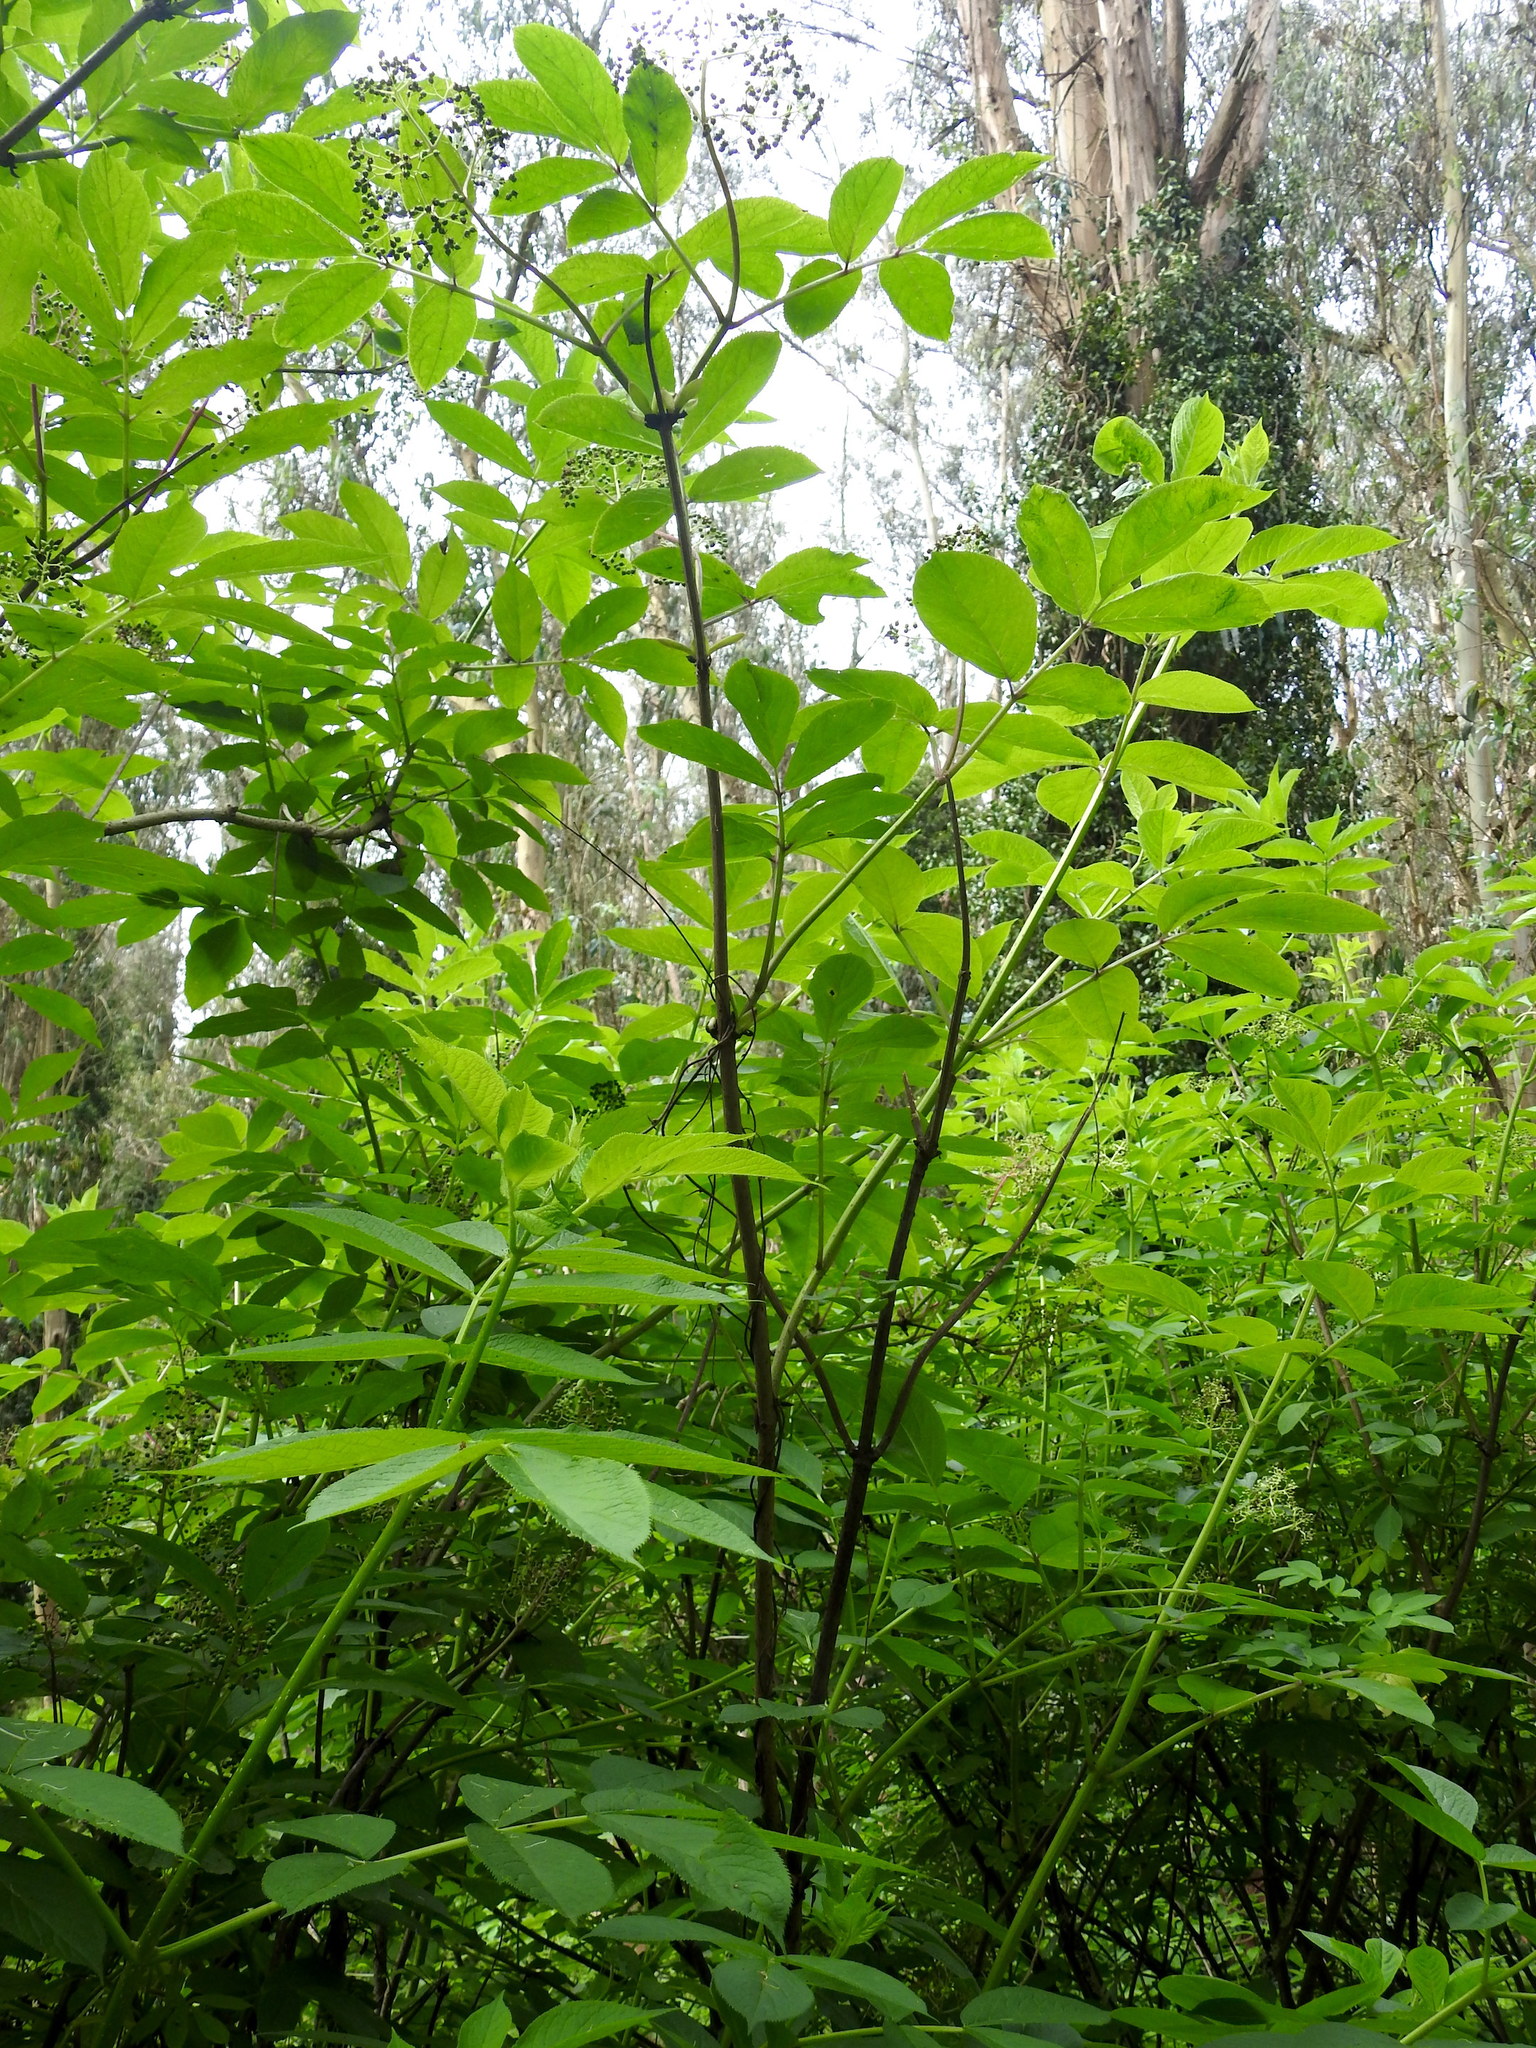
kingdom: Plantae
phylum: Tracheophyta
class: Magnoliopsida
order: Dipsacales
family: Viburnaceae
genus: Sambucus
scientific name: Sambucus racemosa
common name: Red-berried elder
